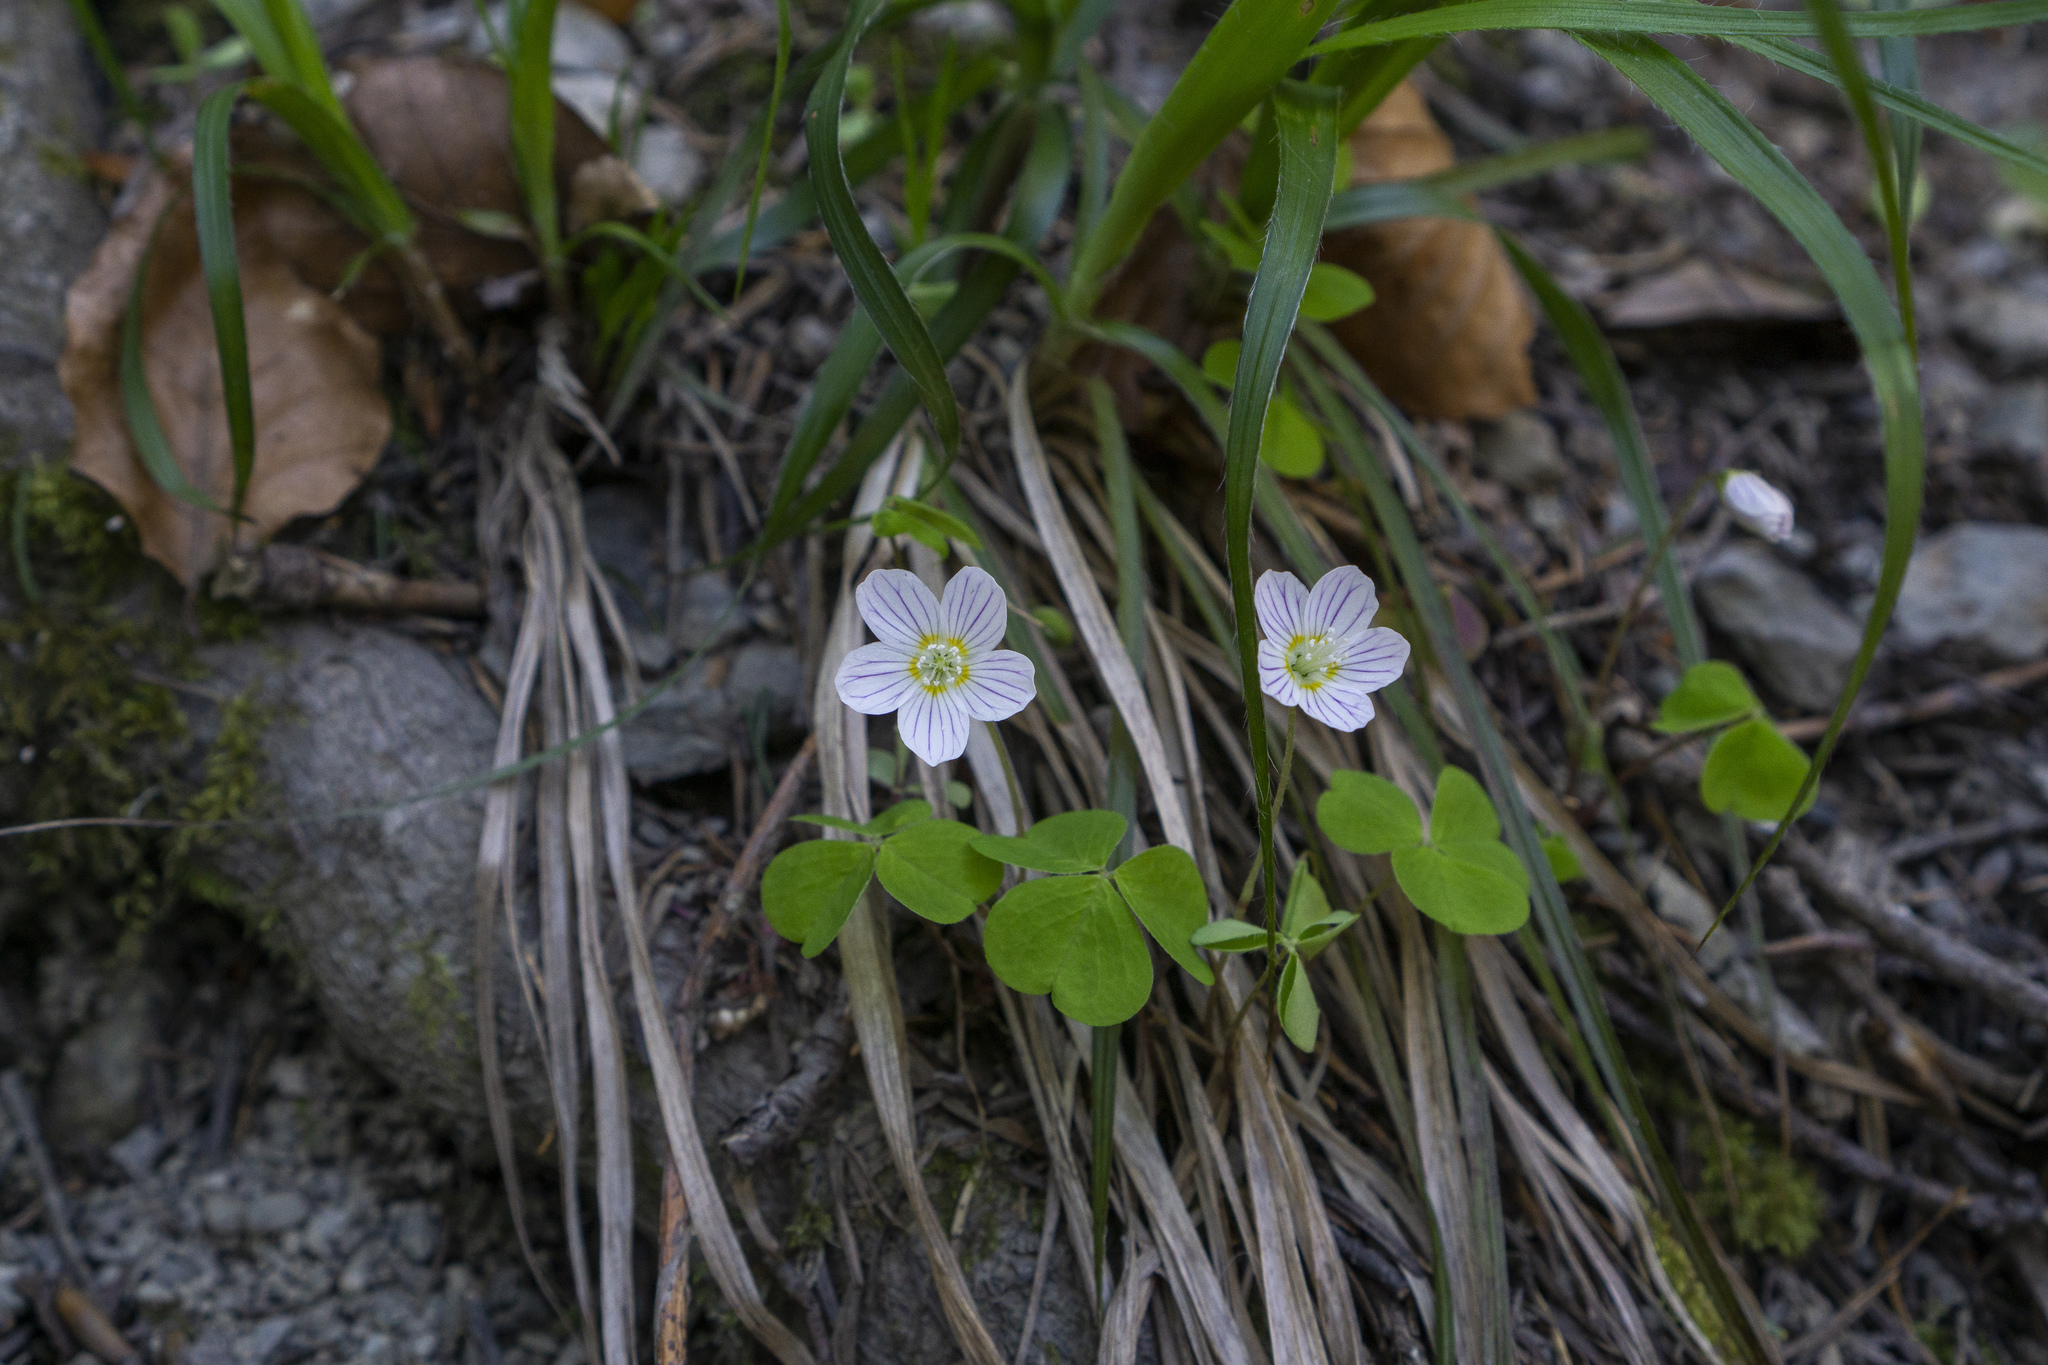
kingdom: Plantae
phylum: Tracheophyta
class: Magnoliopsida
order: Oxalidales
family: Oxalidaceae
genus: Oxalis
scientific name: Oxalis acetosella
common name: Wood-sorrel
